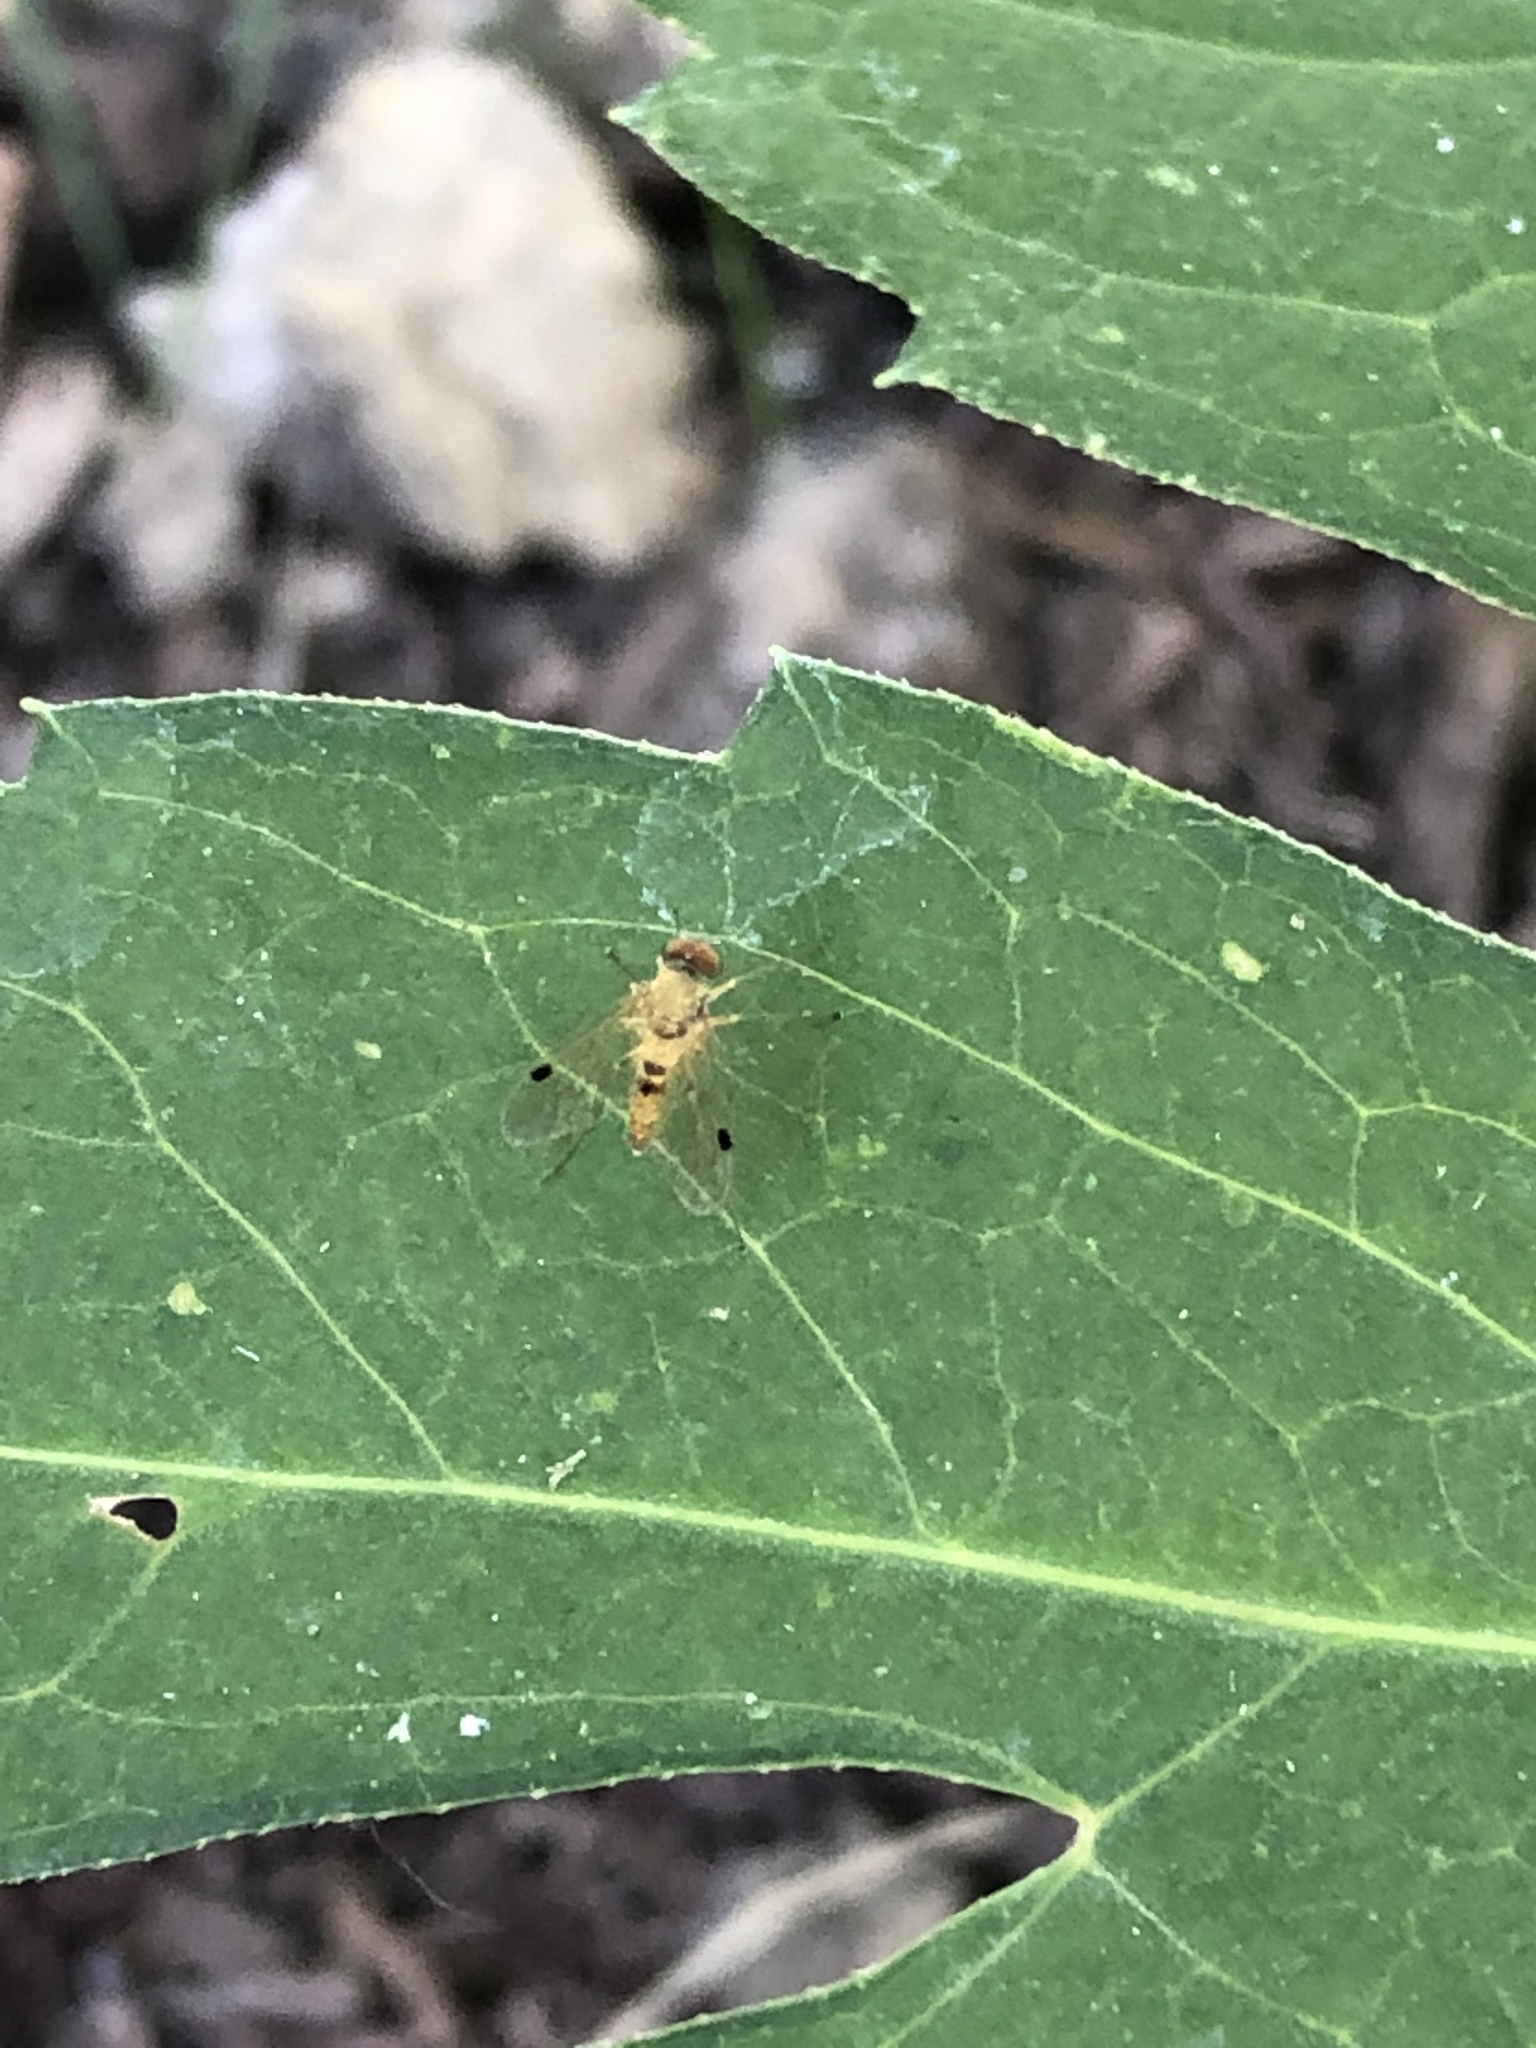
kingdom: Animalia
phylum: Arthropoda
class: Insecta
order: Diptera
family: Rhagionidae
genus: Chrysopilus
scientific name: Chrysopilus modestus
